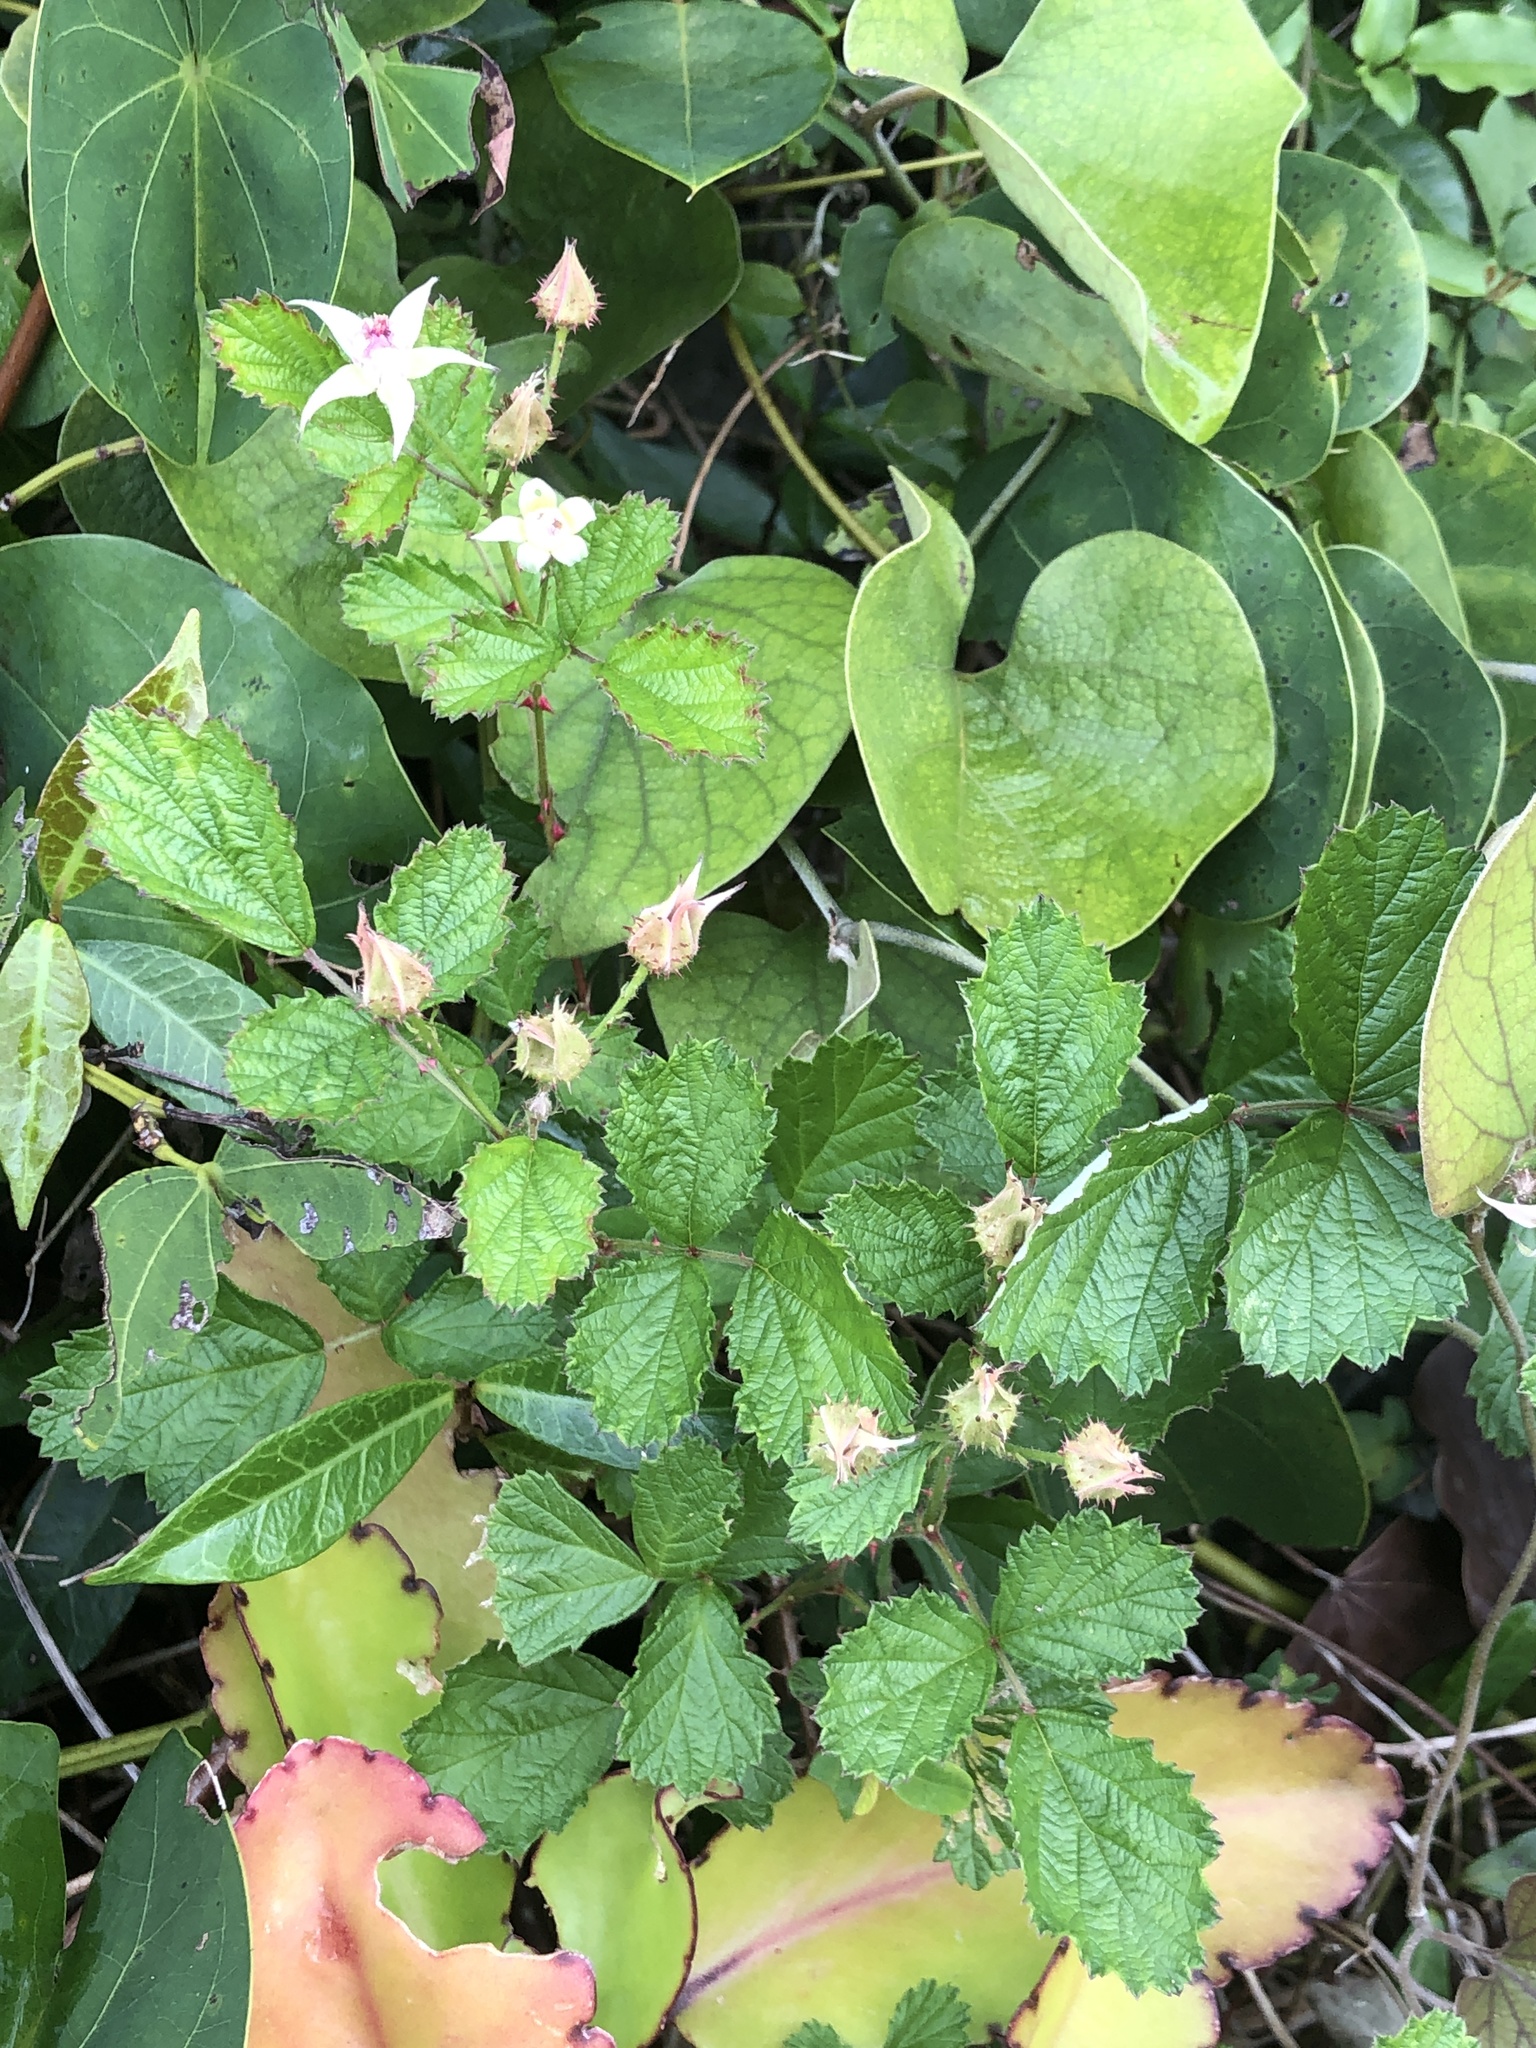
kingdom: Plantae
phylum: Tracheophyta
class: Magnoliopsida
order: Rosales
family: Rosaceae
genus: Rubus
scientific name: Rubus parvifolius
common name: Threeleaf blackberry
